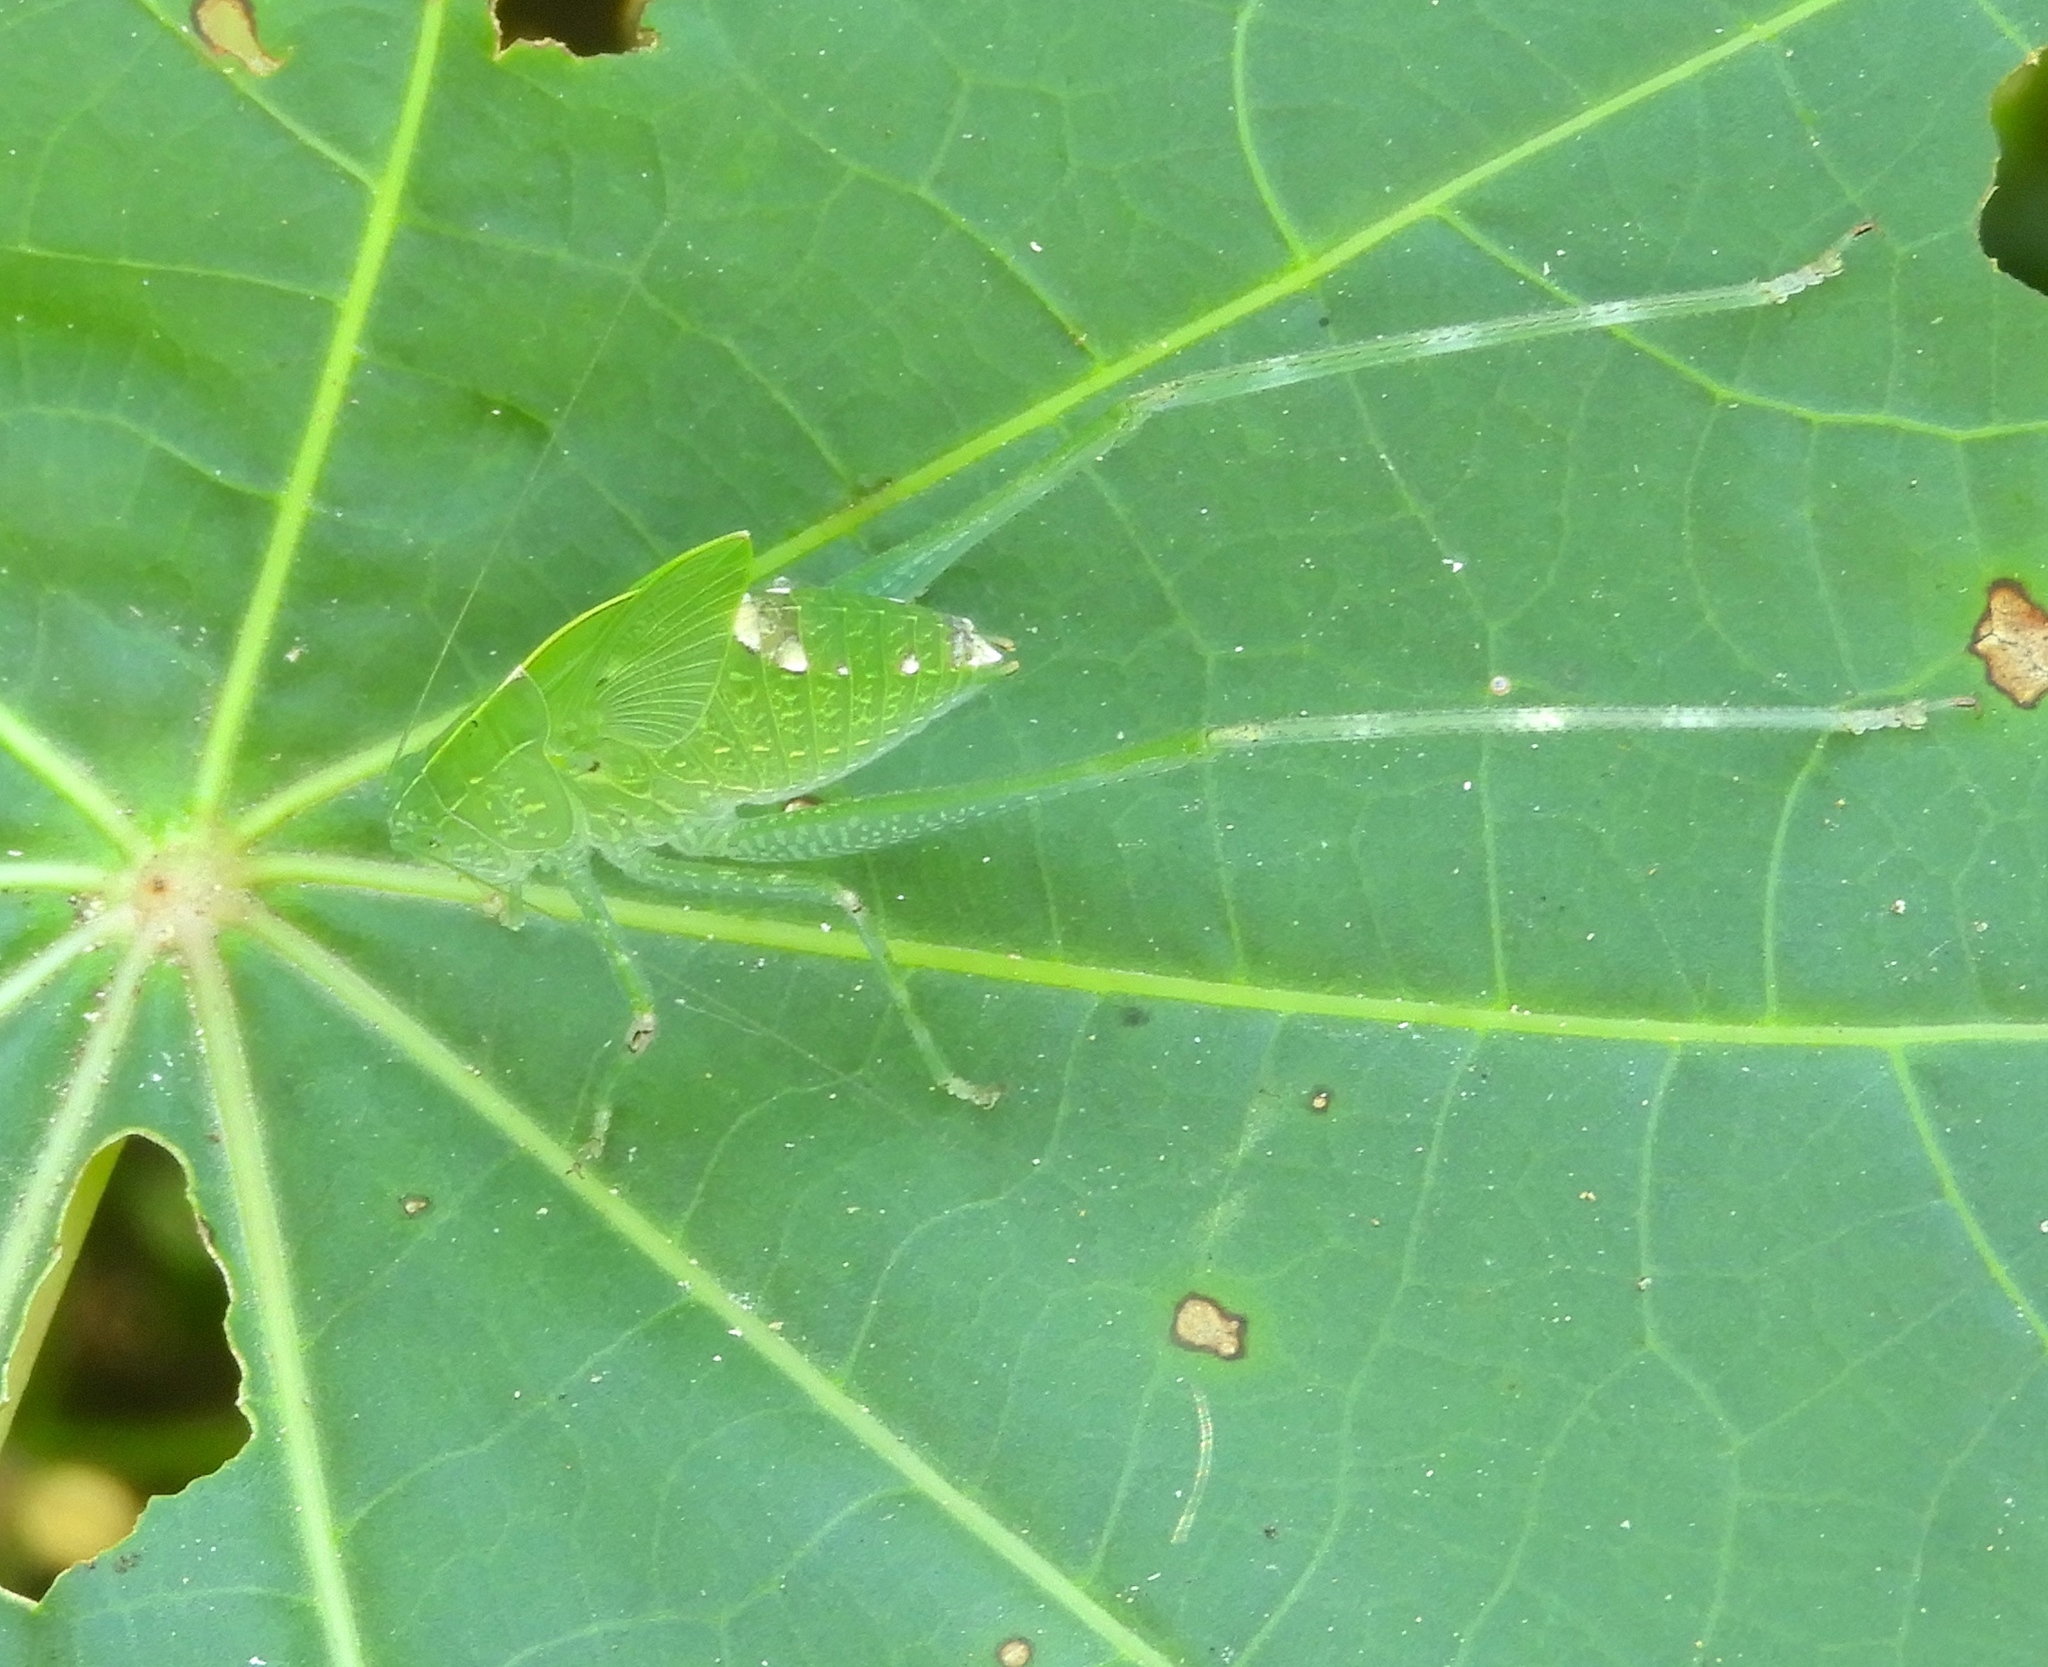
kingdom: Animalia
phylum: Arthropoda
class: Insecta
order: Orthoptera
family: Tettigoniidae
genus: Microcentrum
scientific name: Microcentrum
